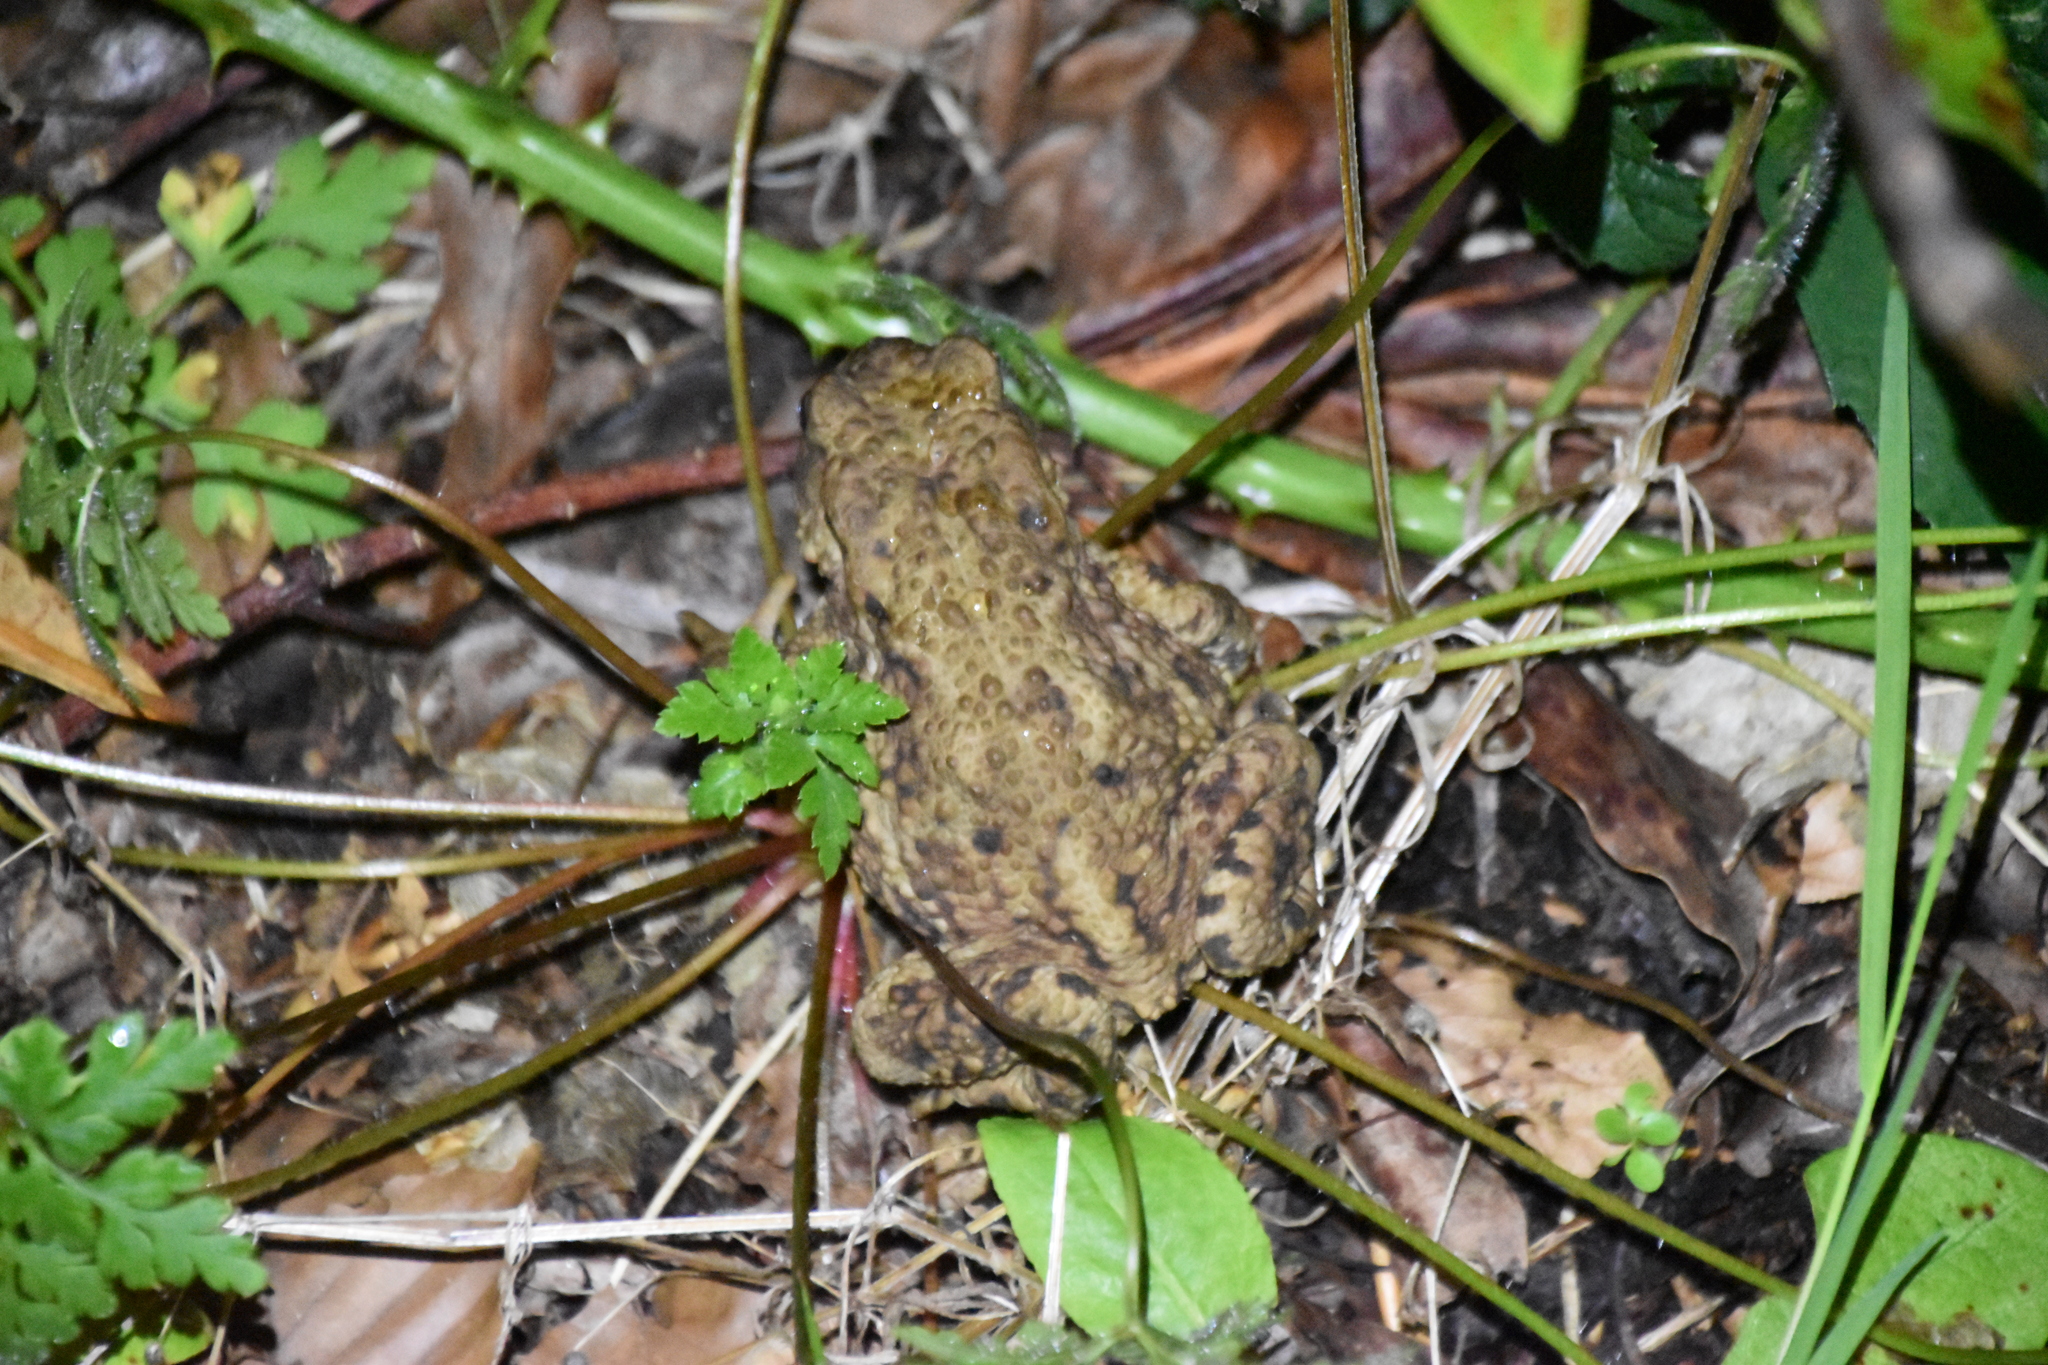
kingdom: Animalia
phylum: Chordata
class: Amphibia
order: Anura
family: Bufonidae
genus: Bufo
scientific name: Bufo bufo
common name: Common toad
